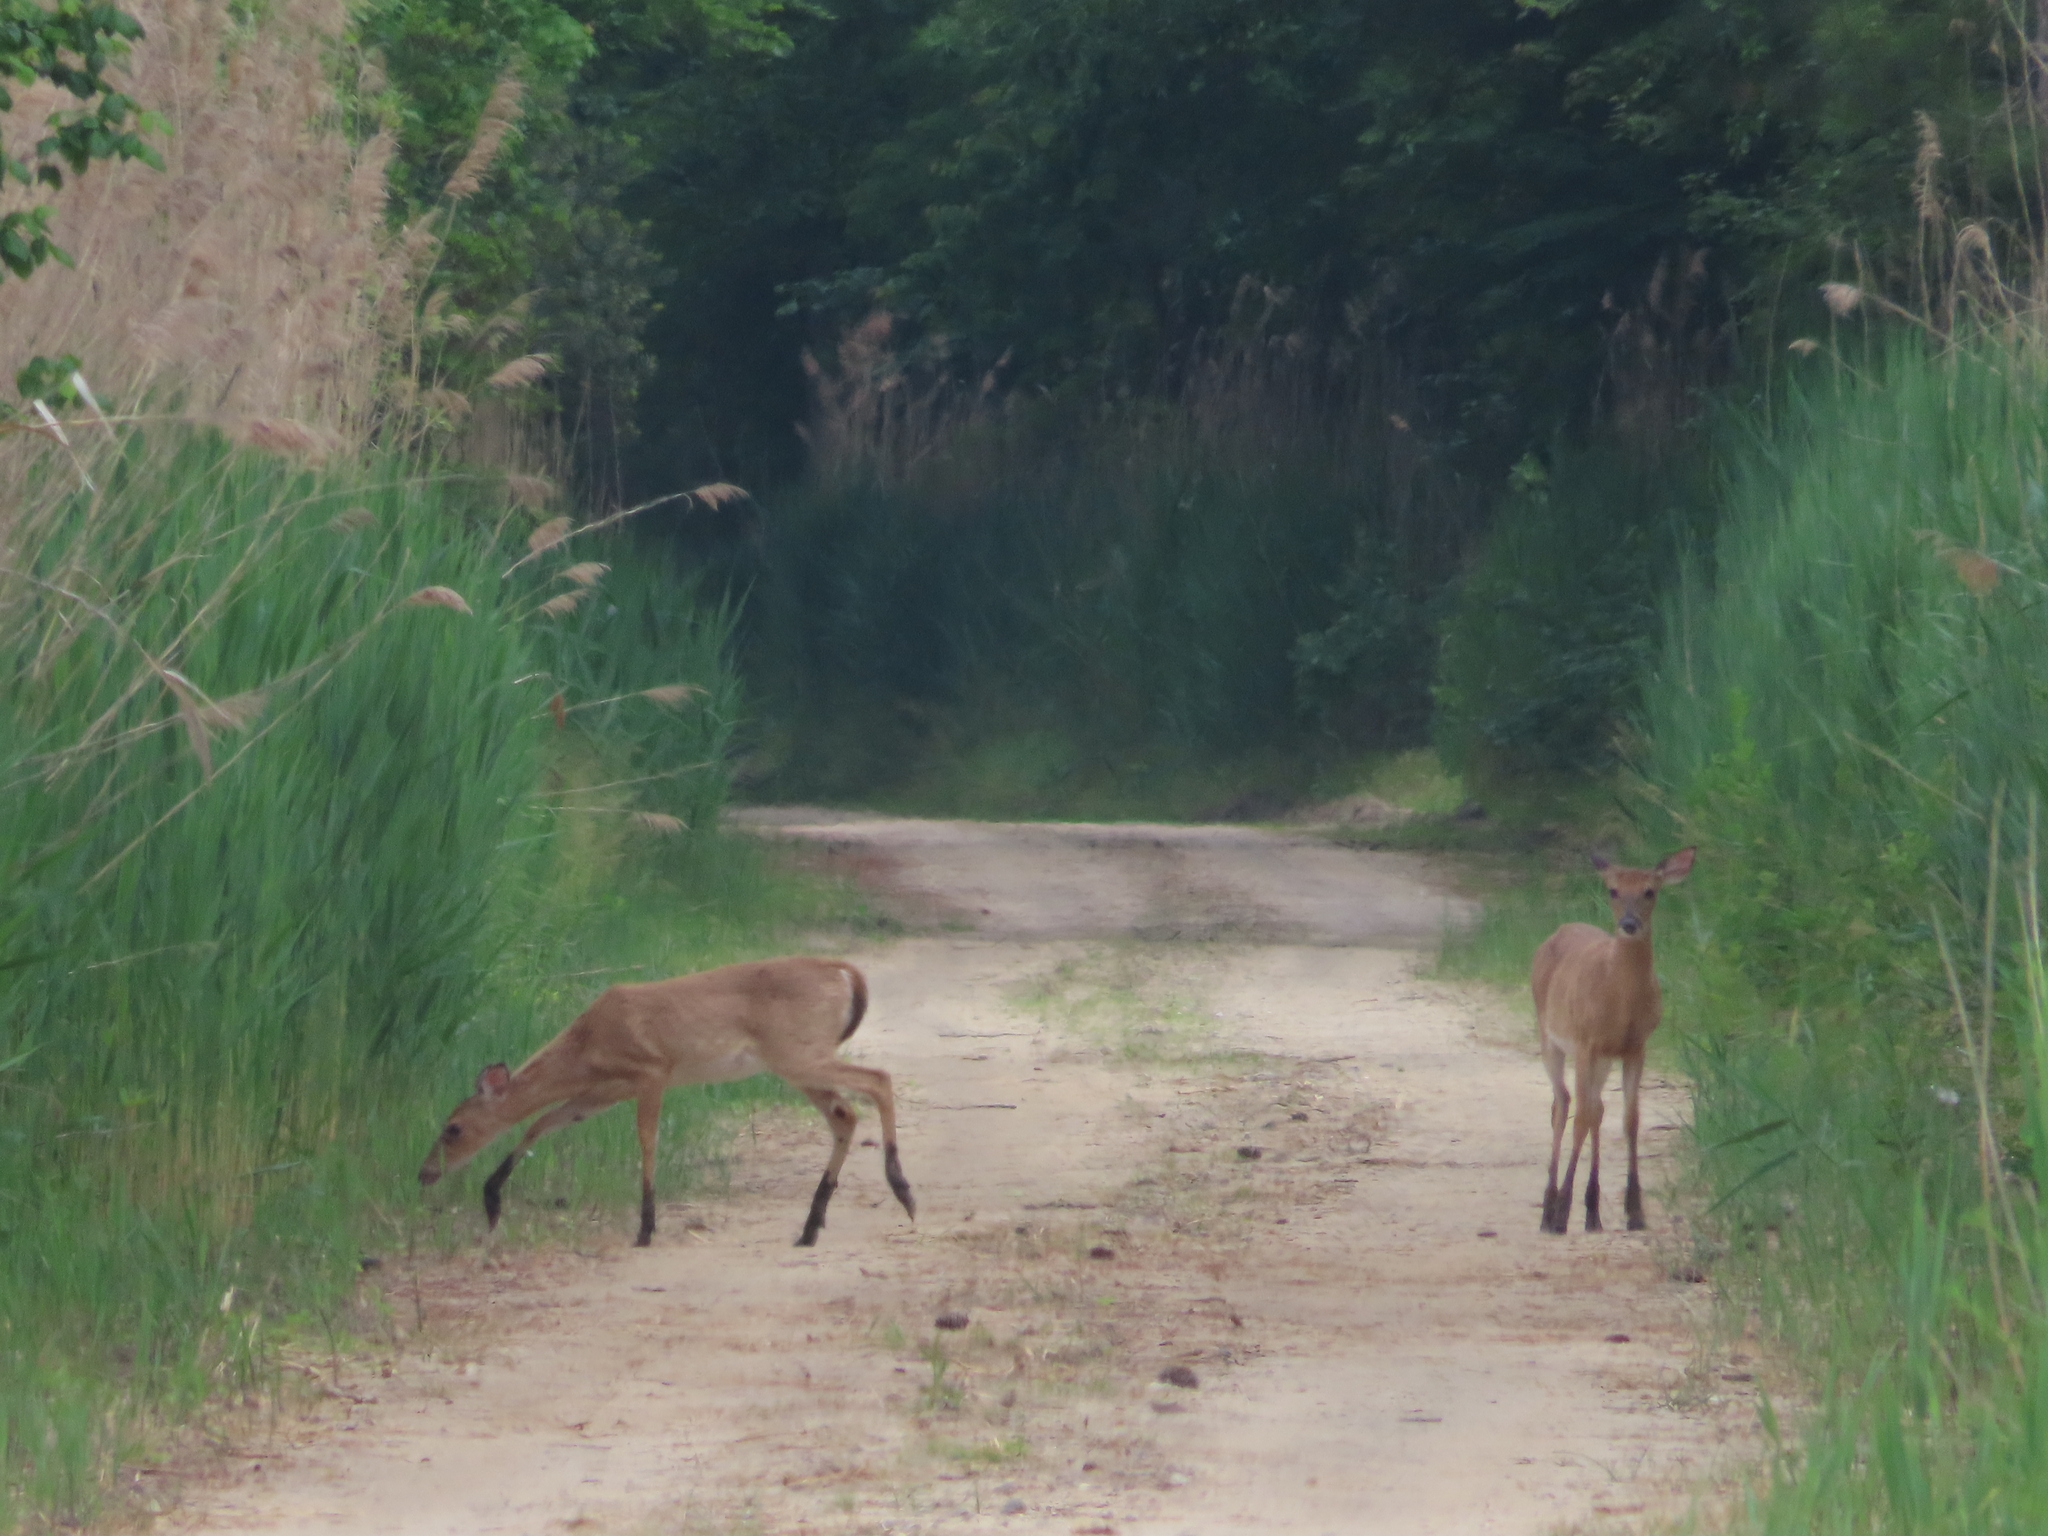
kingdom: Animalia
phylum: Chordata
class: Mammalia
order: Artiodactyla
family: Cervidae
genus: Odocoileus
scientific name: Odocoileus virginianus
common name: White-tailed deer
